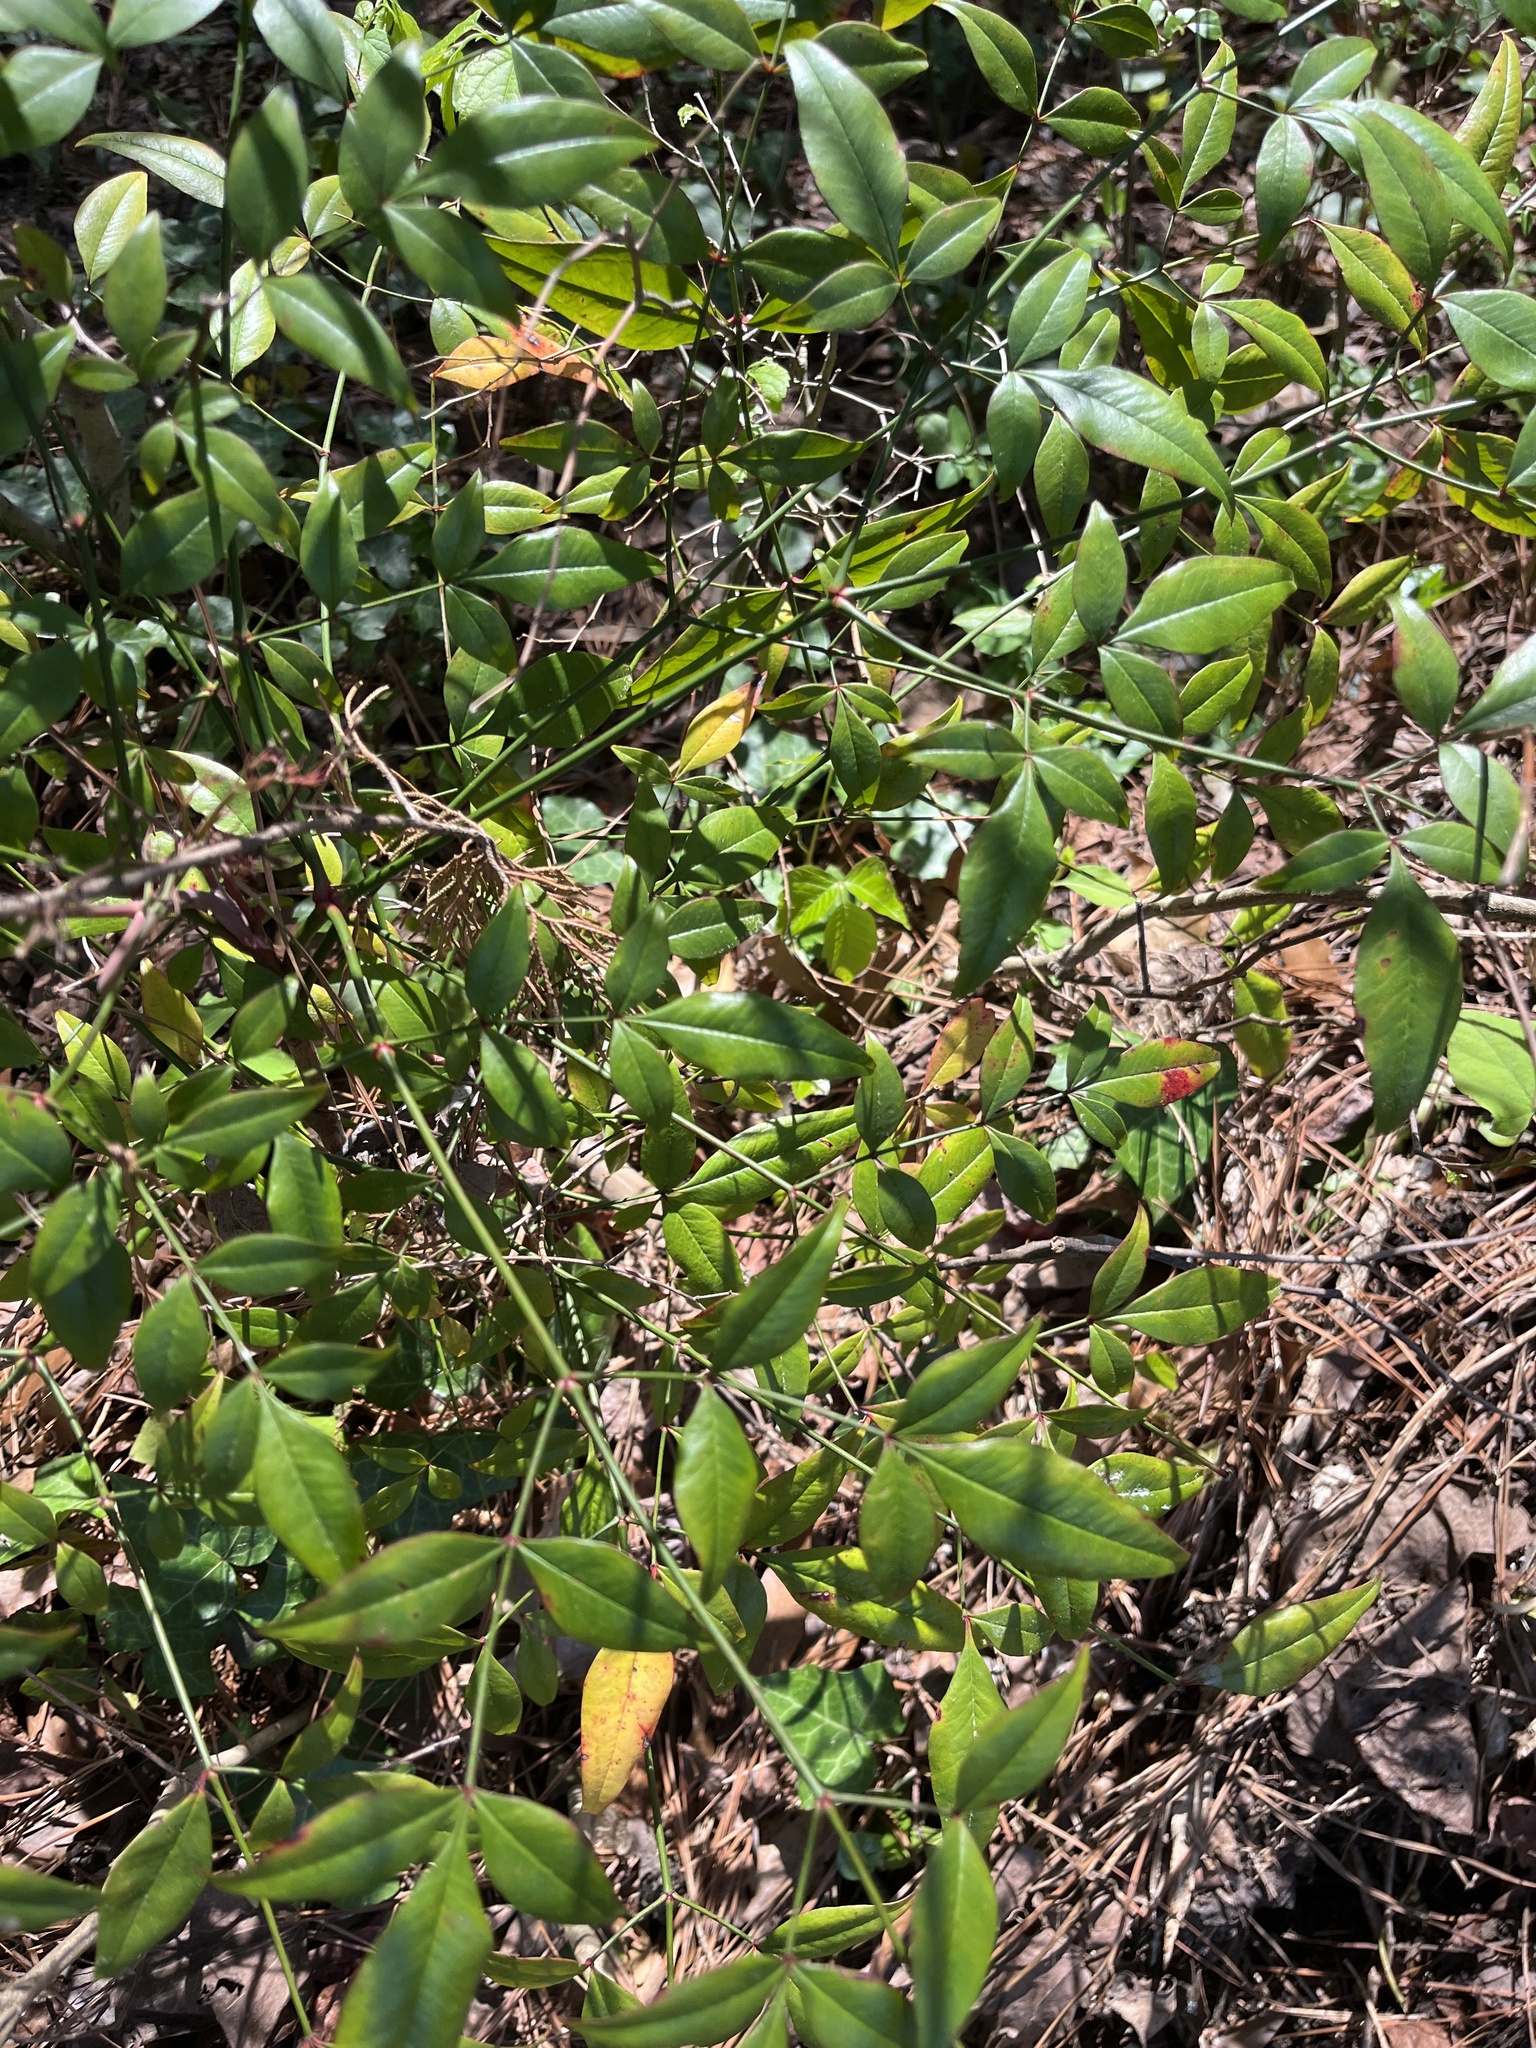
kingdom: Plantae
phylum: Tracheophyta
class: Magnoliopsida
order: Ranunculales
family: Berberidaceae
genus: Nandina
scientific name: Nandina domestica
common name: Sacred bamboo
